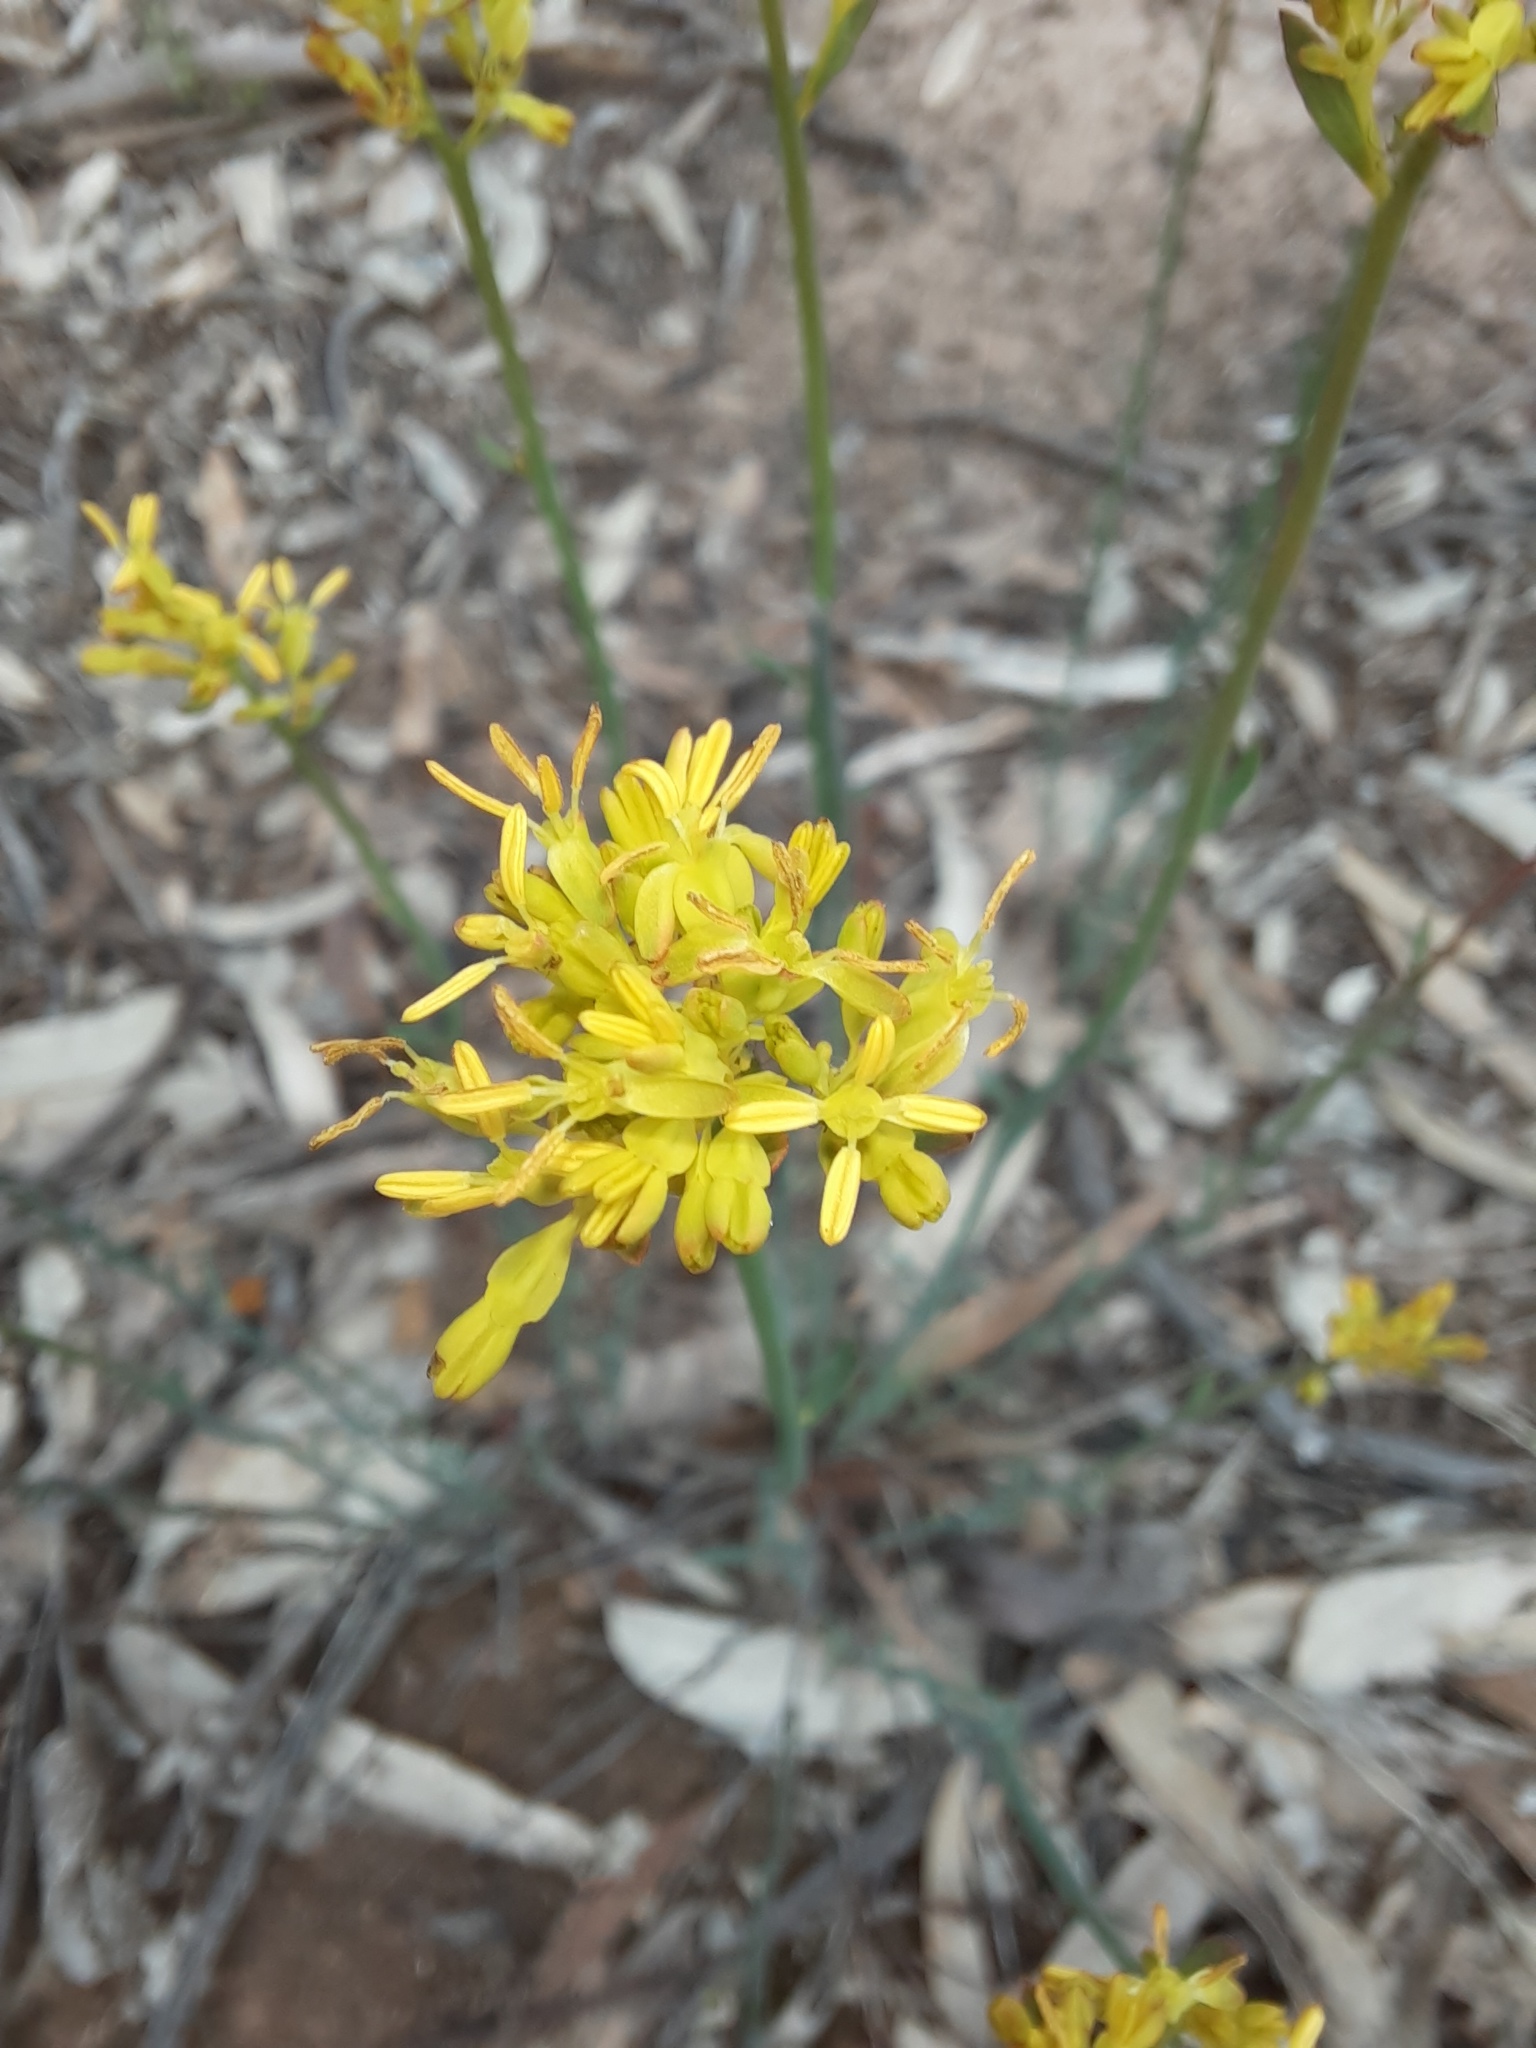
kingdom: Plantae
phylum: Tracheophyta
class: Magnoliopsida
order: Saxifragales
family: Haloragaceae
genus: Glischrocaryon
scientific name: Glischrocaryon behrii
